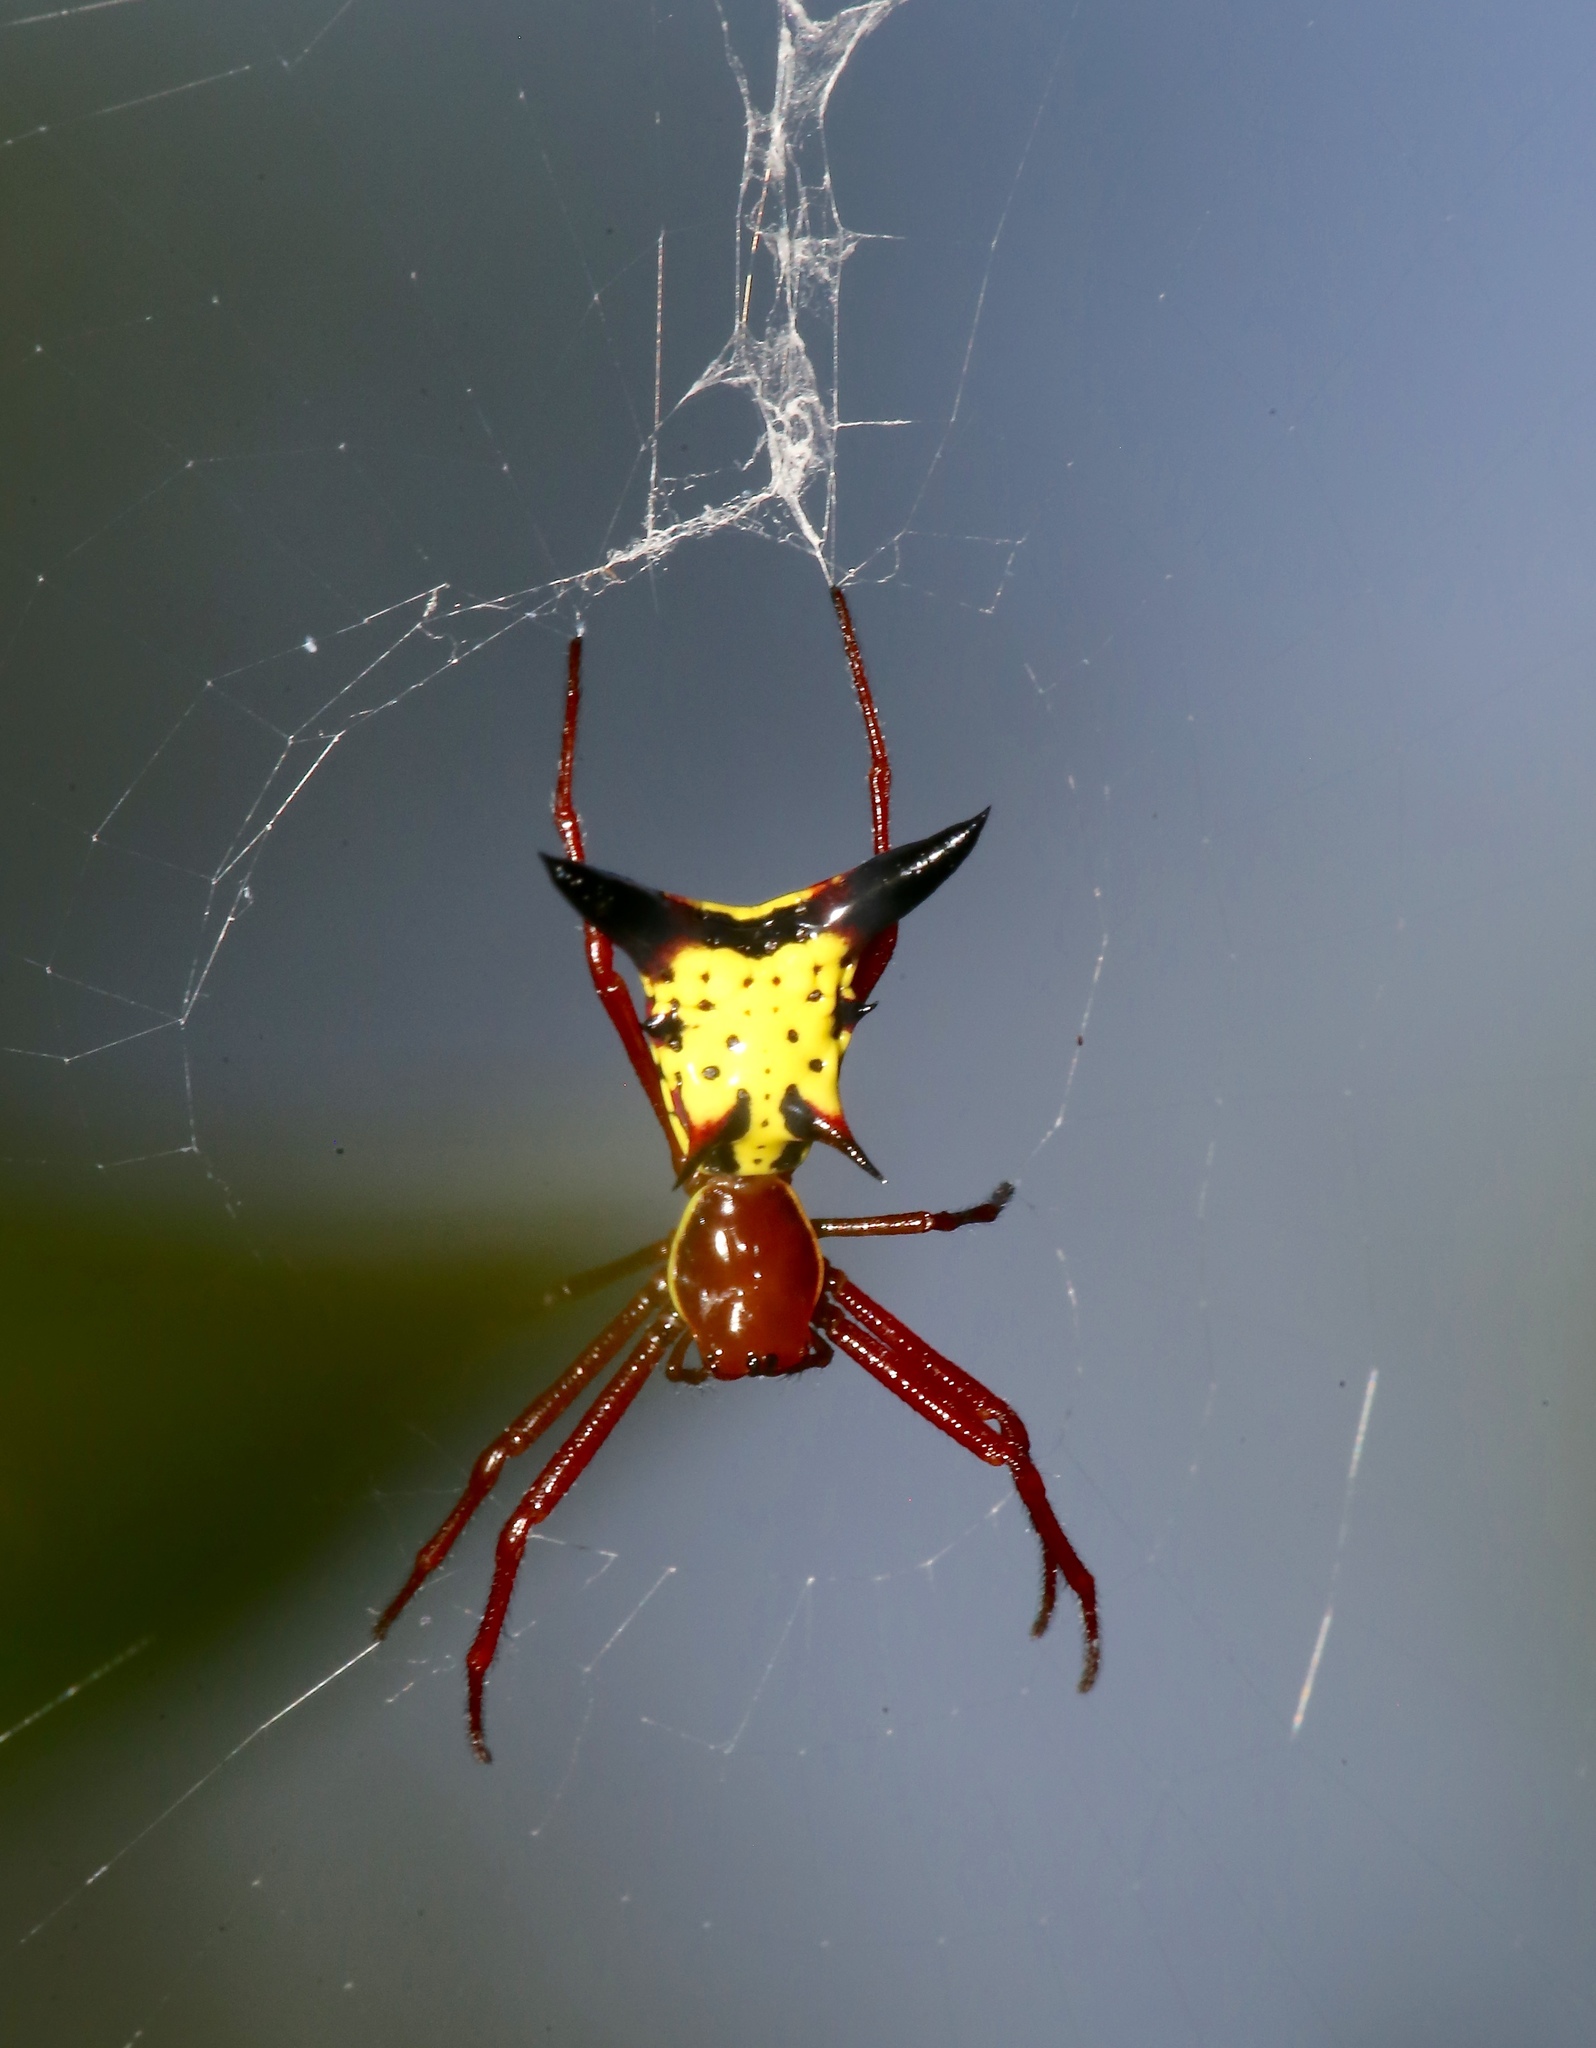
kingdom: Animalia
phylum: Arthropoda
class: Arachnida
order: Araneae
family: Araneidae
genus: Micrathena
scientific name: Micrathena sagittata
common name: Orb weavers
